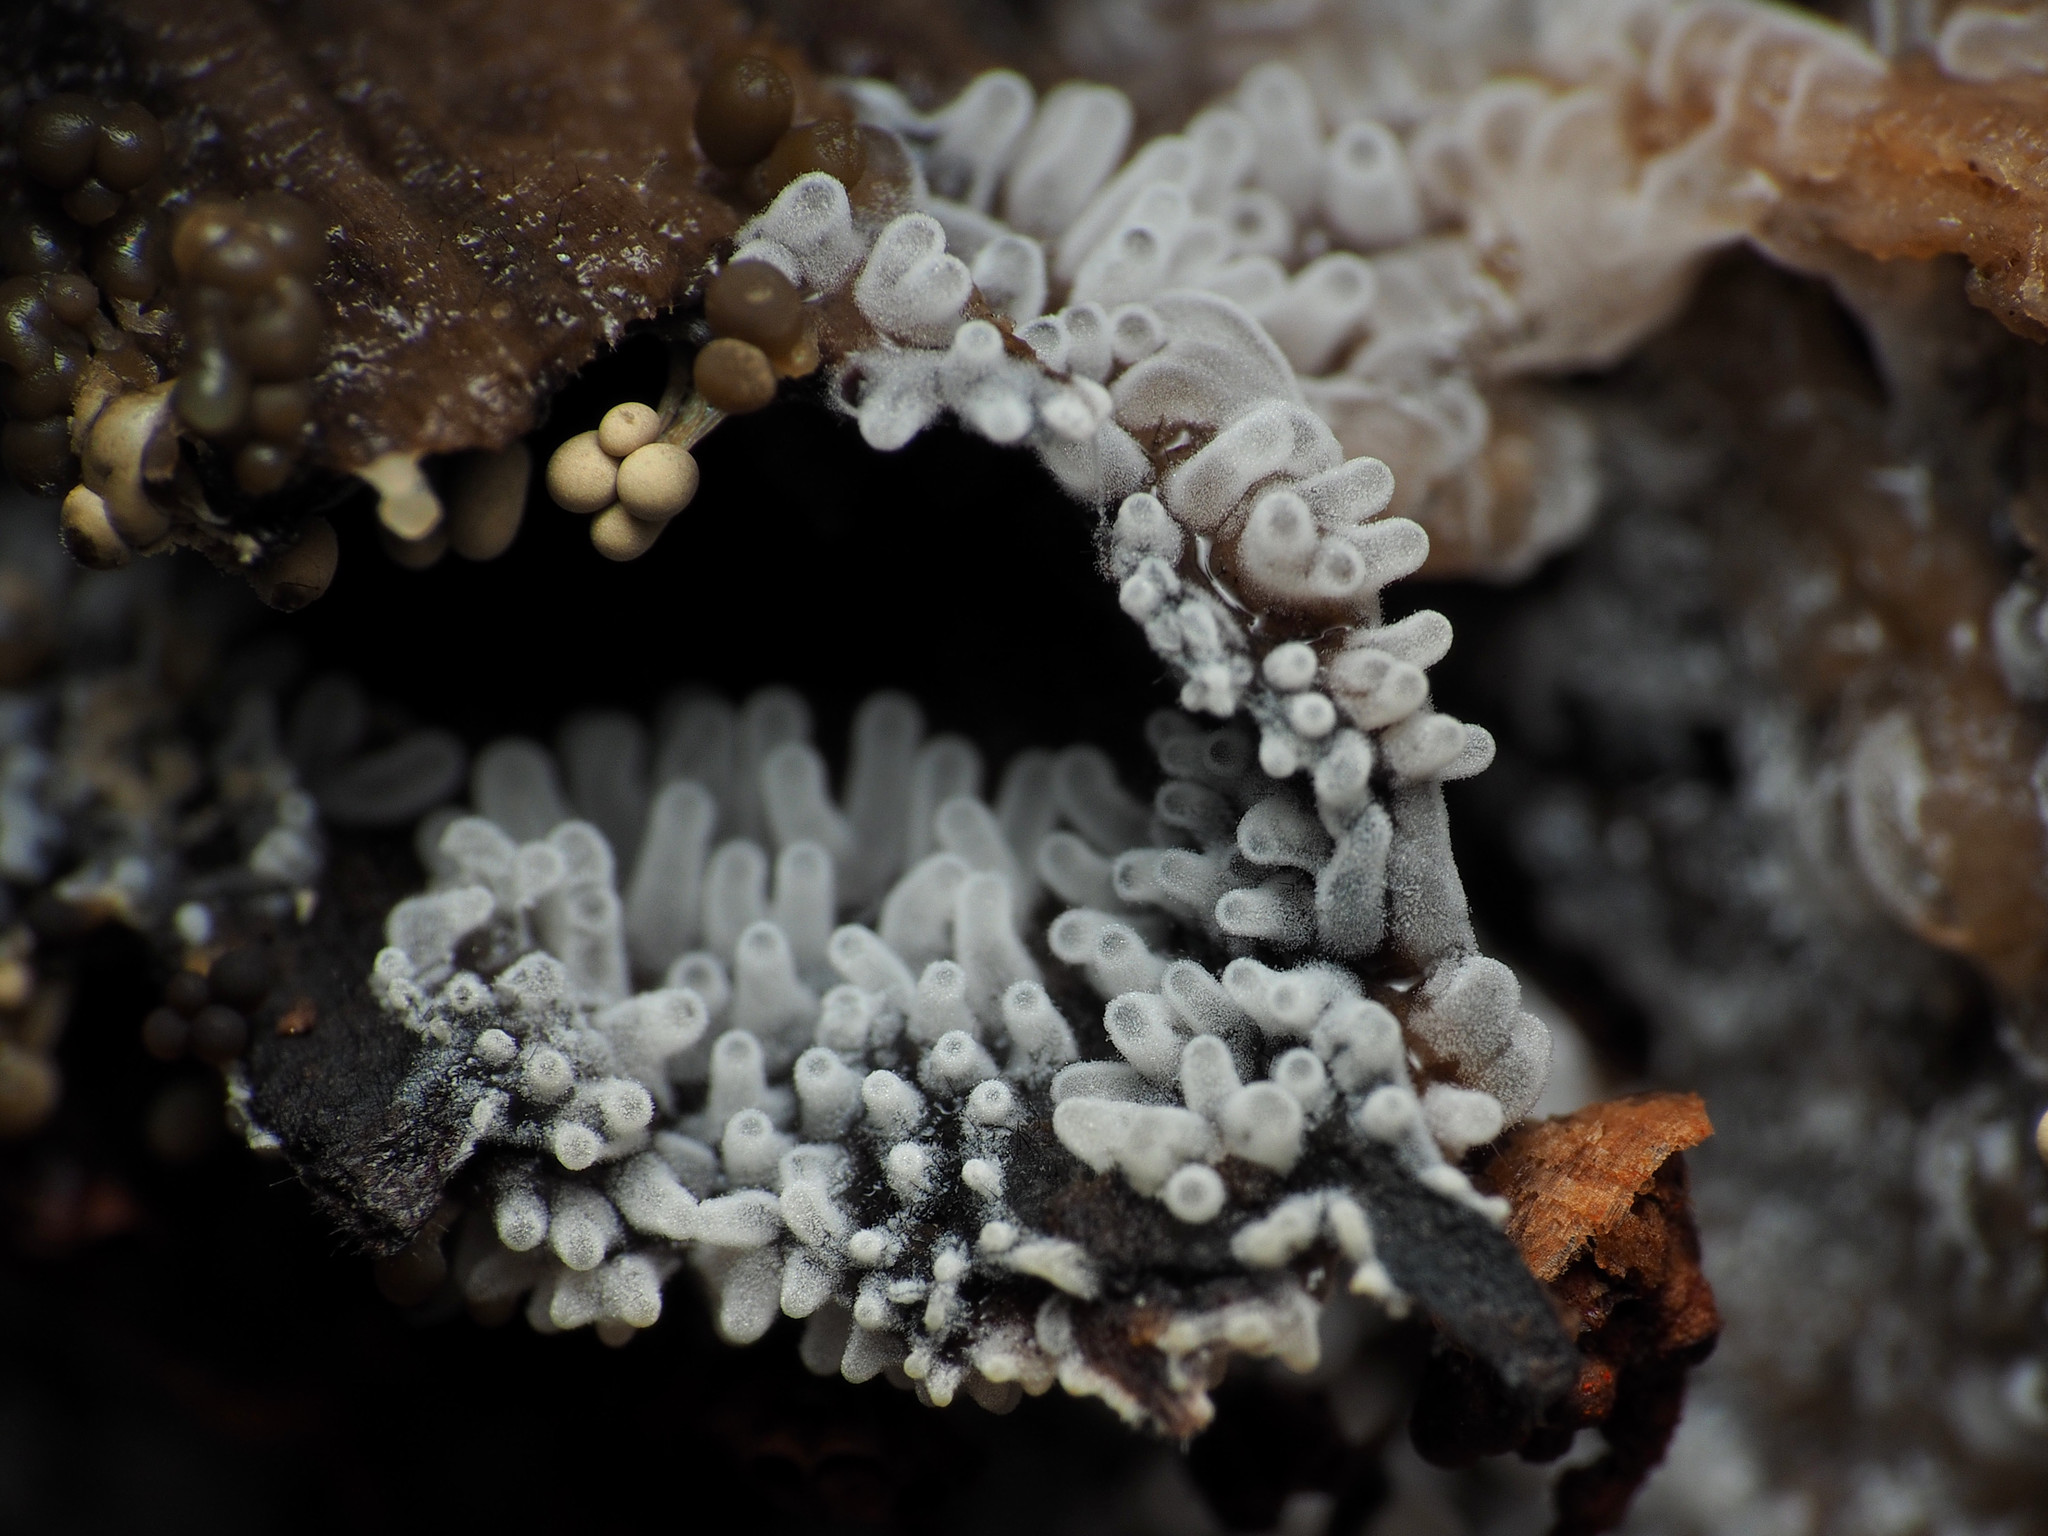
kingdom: Protozoa
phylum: Mycetozoa
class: Protosteliomycetes
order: Ceratiomyxales
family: Ceratiomyxaceae
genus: Ceratiomyxa
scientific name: Ceratiomyxa fruticulosa
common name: Honeycomb coral slime mold
